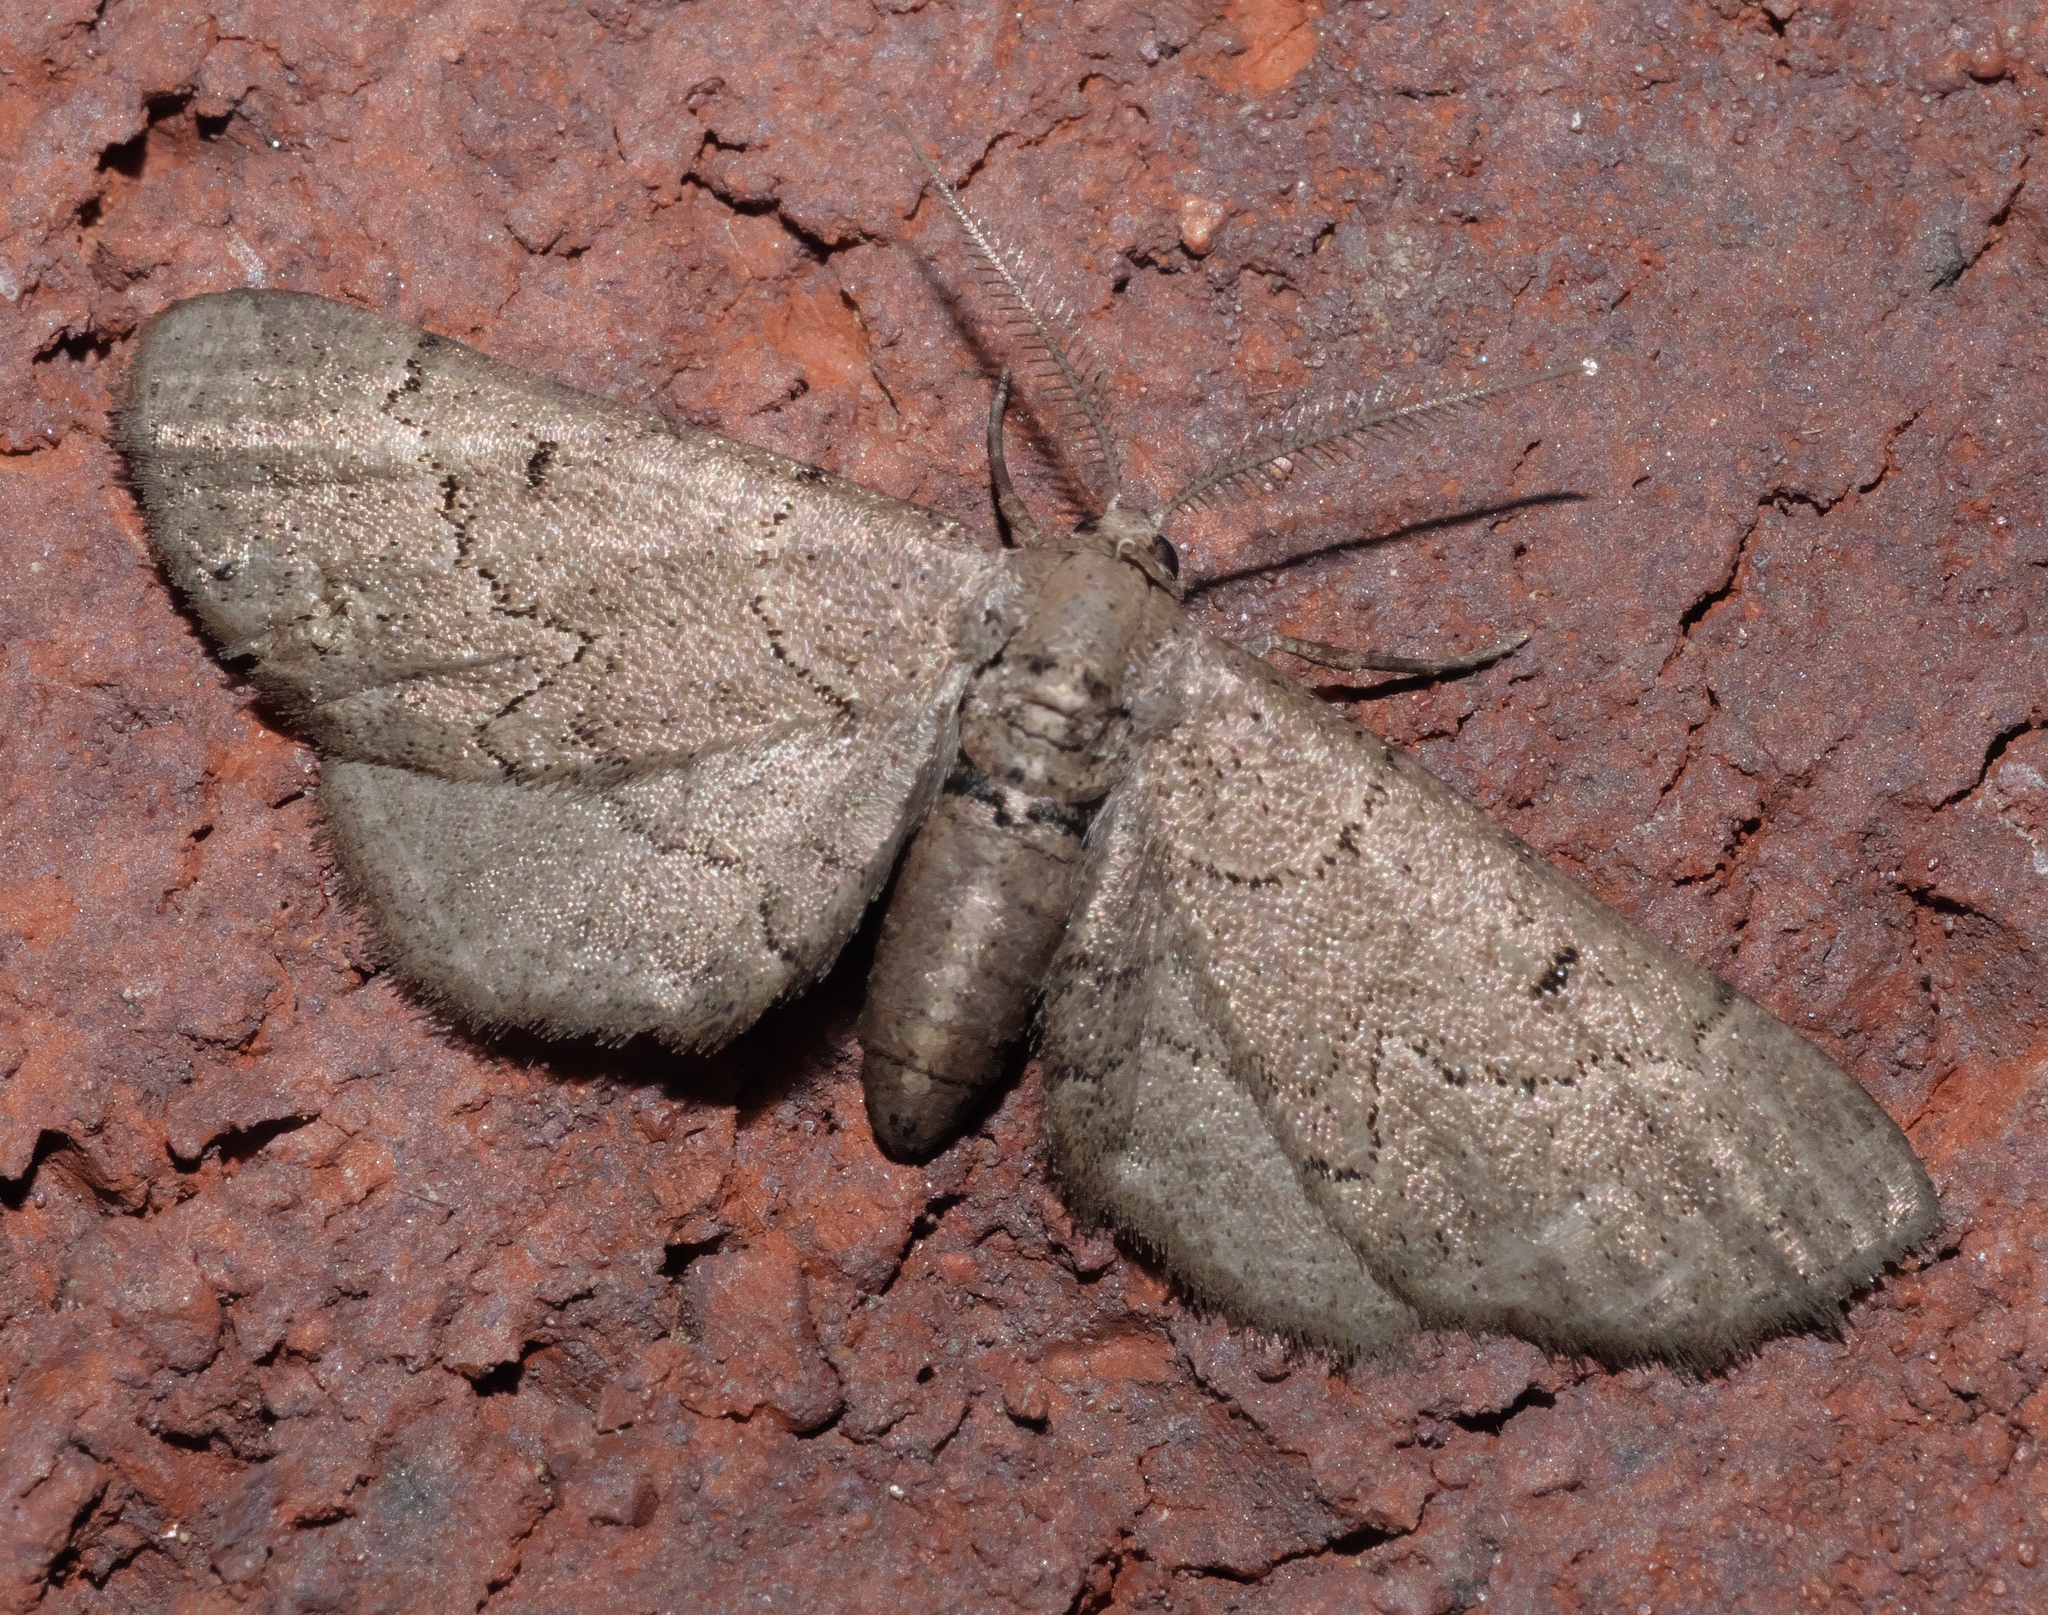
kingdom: Animalia
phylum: Arthropoda
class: Insecta
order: Lepidoptera
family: Geometridae
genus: Exelis
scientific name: Exelis pyrolaria
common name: Fine lined gray
